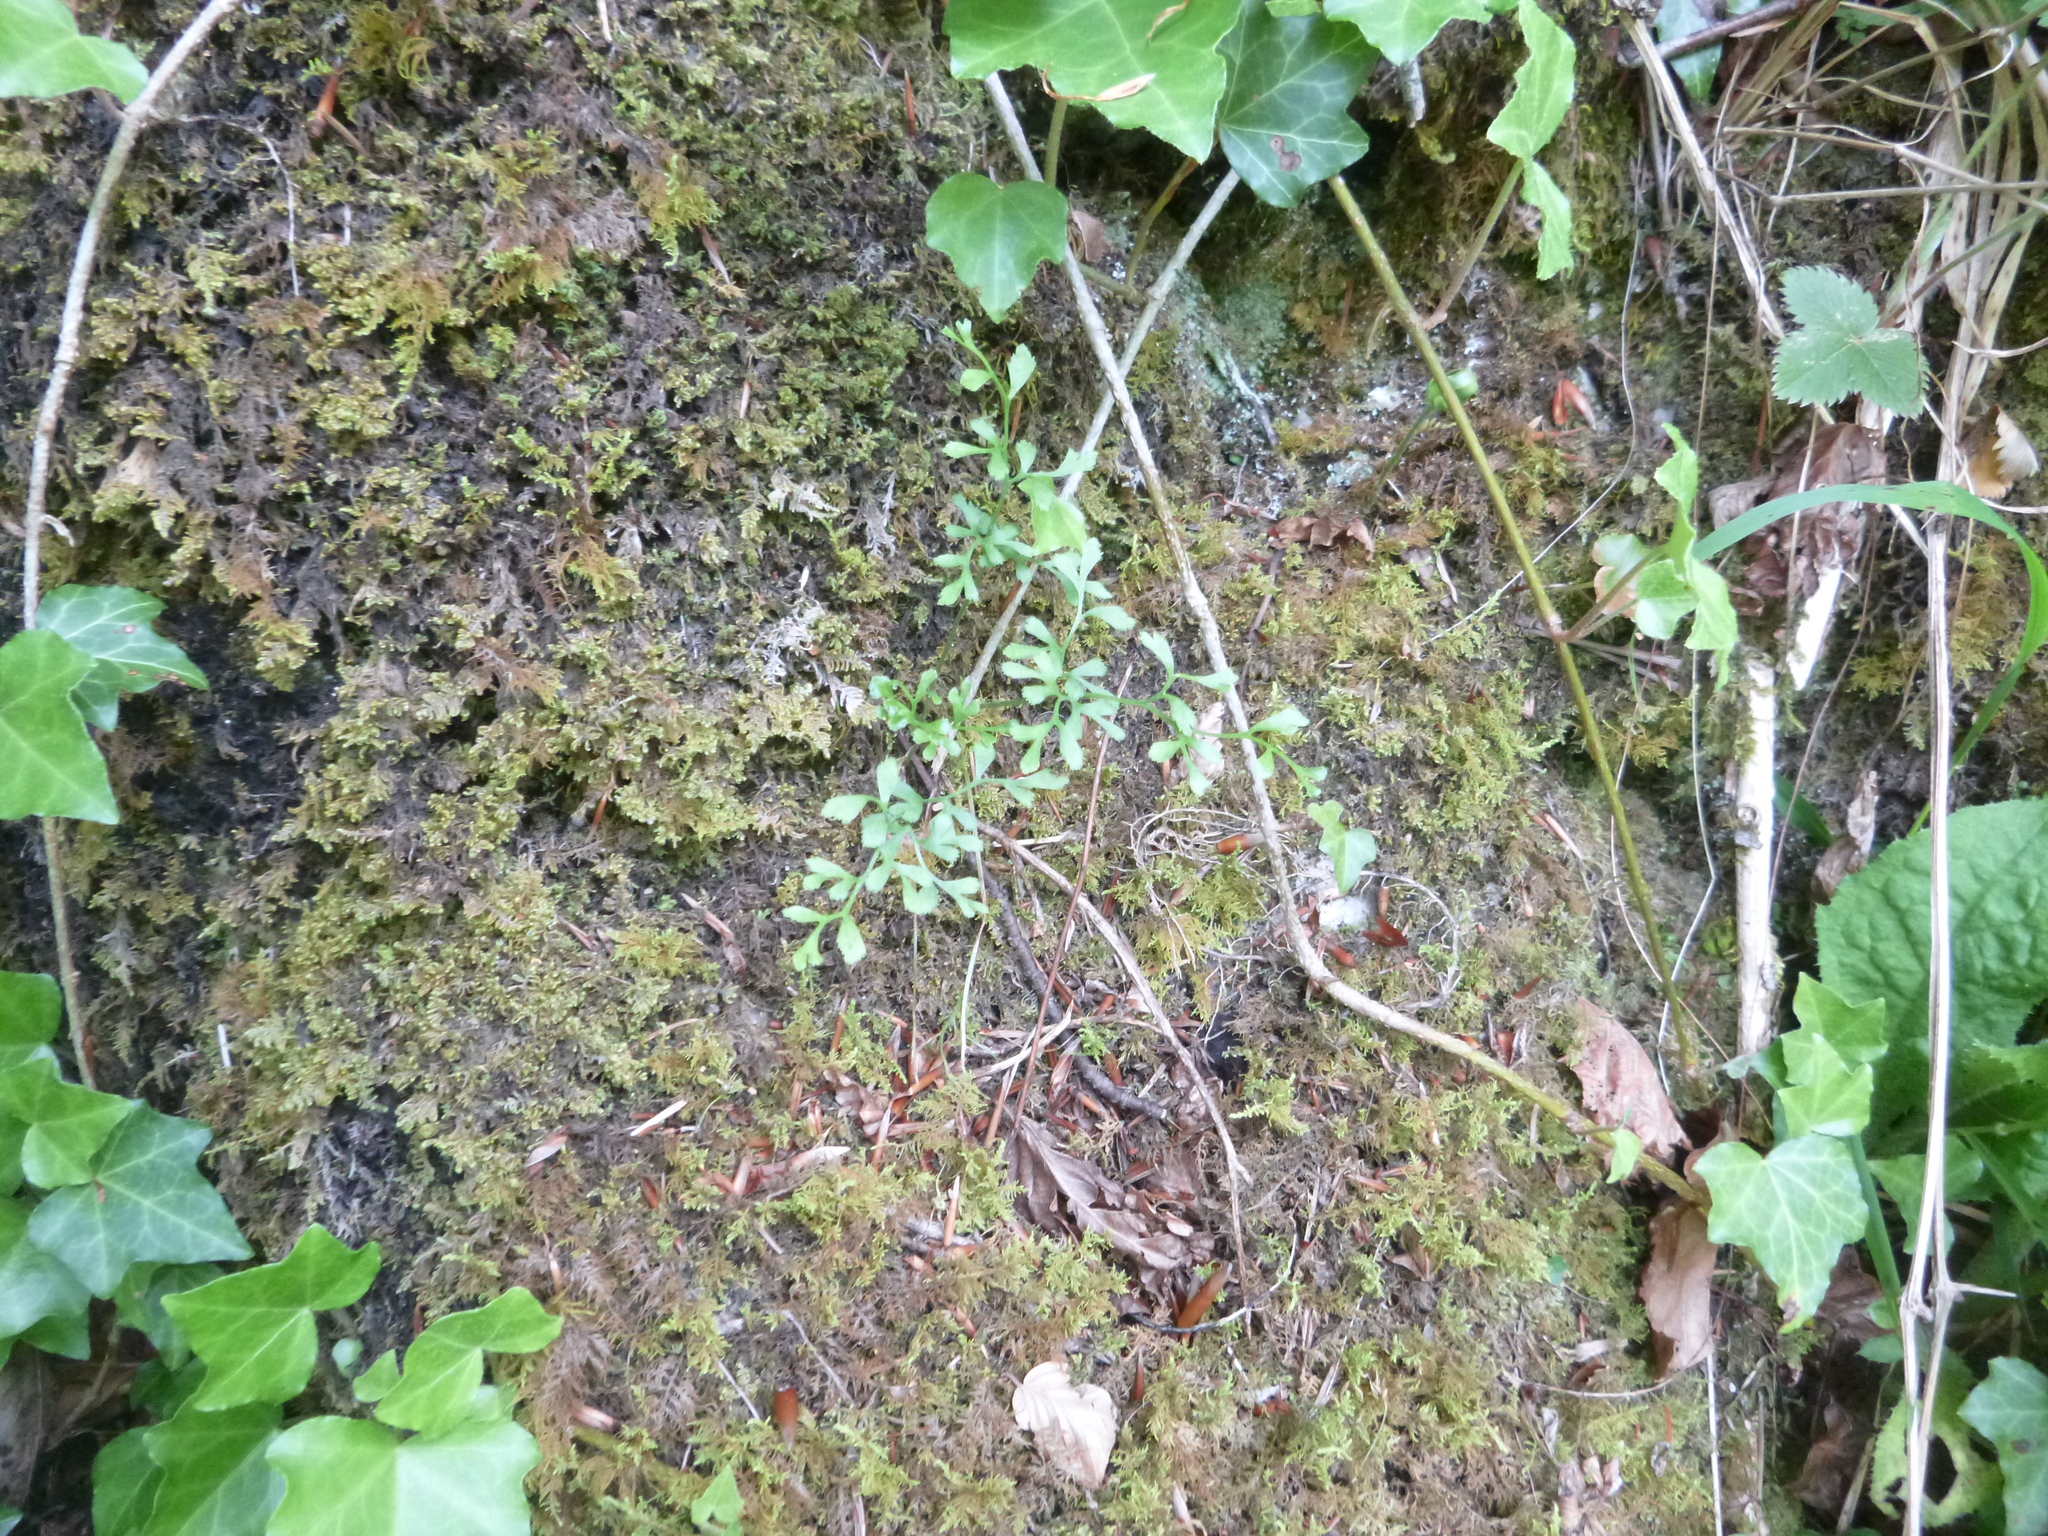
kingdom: Plantae
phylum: Tracheophyta
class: Polypodiopsida
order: Polypodiales
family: Aspleniaceae
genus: Asplenium
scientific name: Asplenium ruta-muraria
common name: Wall-rue
